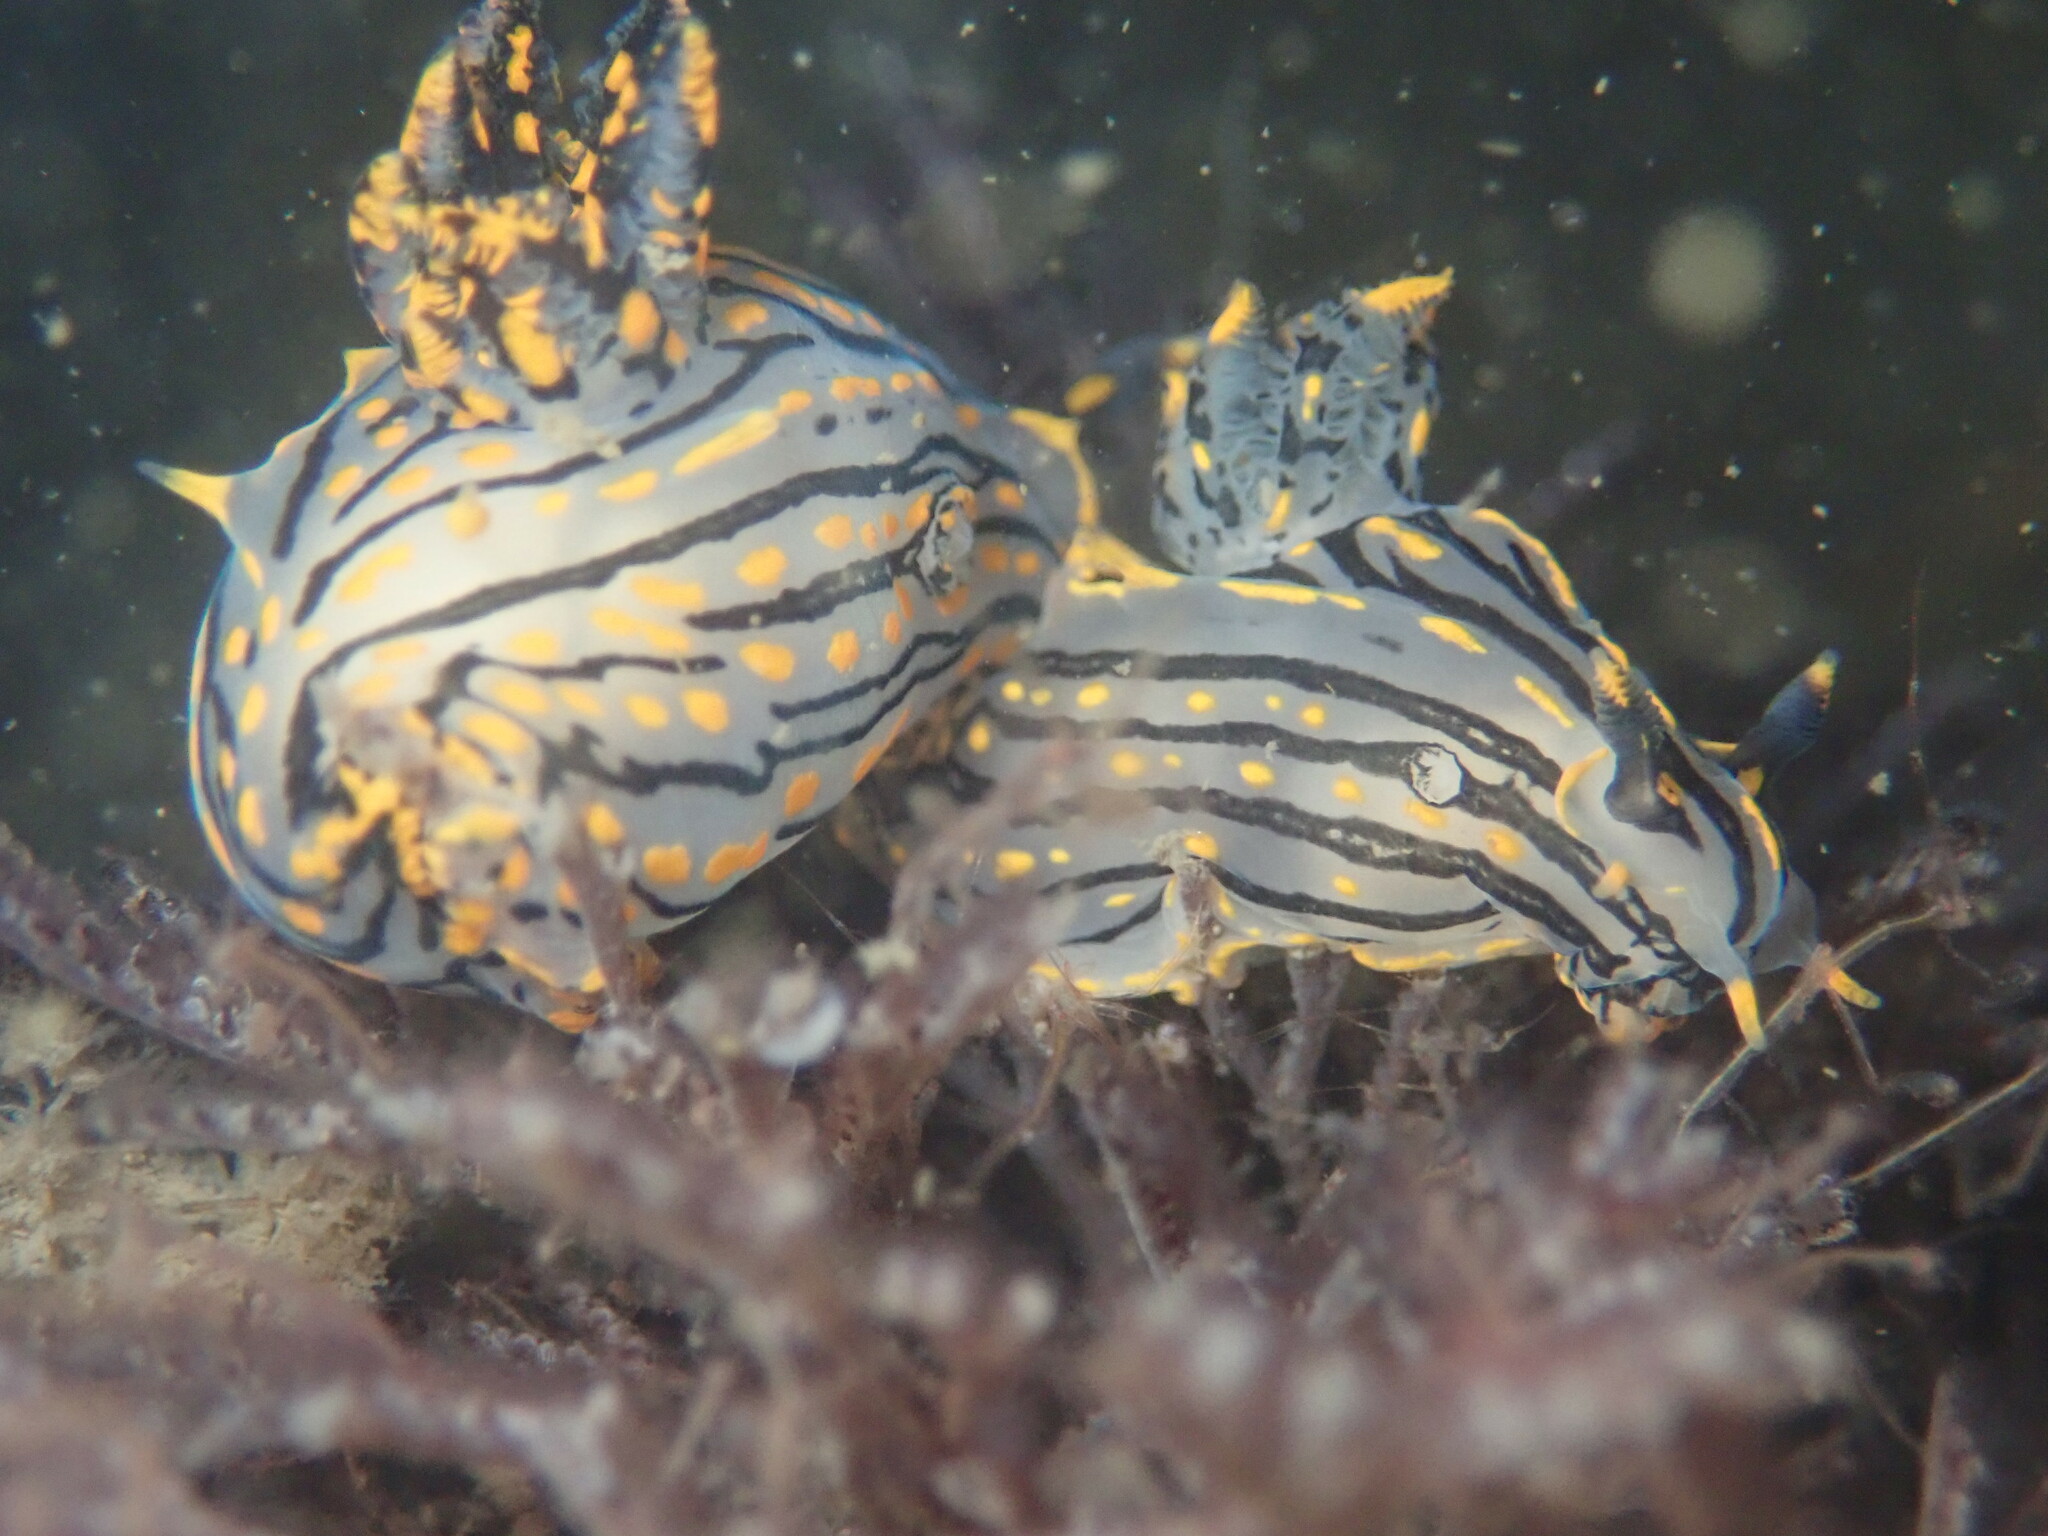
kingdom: Animalia
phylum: Mollusca
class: Gastropoda
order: Nudibranchia
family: Polyceridae
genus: Polycera
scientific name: Polycera atra
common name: Orange-spike polycera
